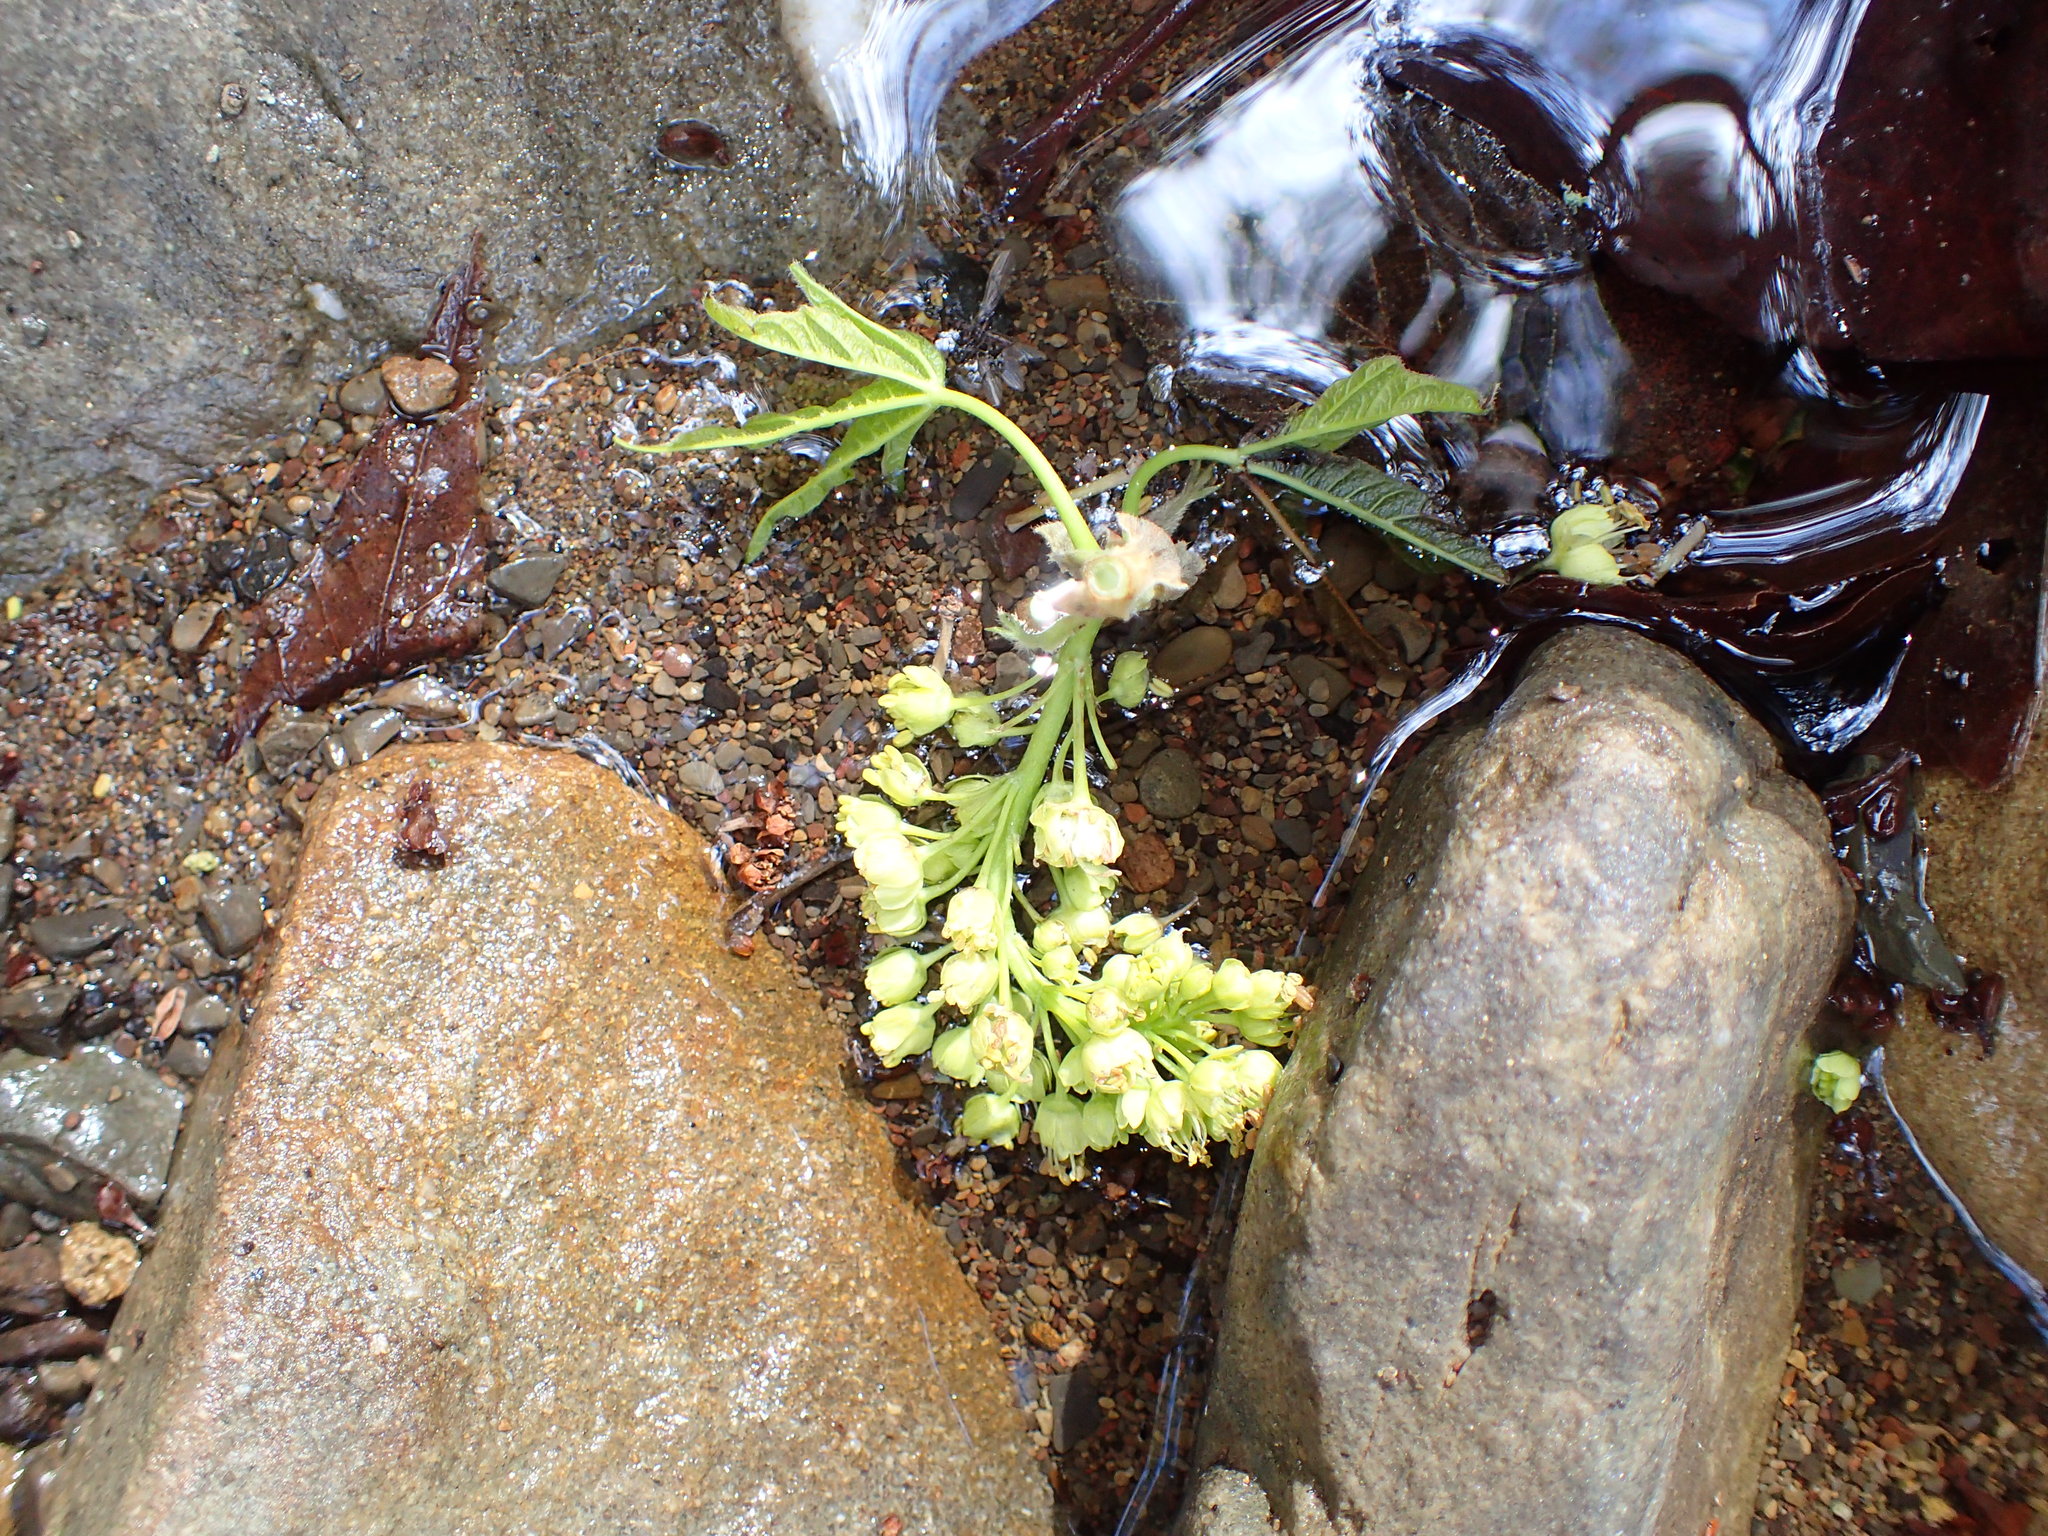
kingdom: Plantae
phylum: Tracheophyta
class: Magnoliopsida
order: Sapindales
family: Sapindaceae
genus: Acer
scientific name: Acer macrophyllum
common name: Oregon maple
